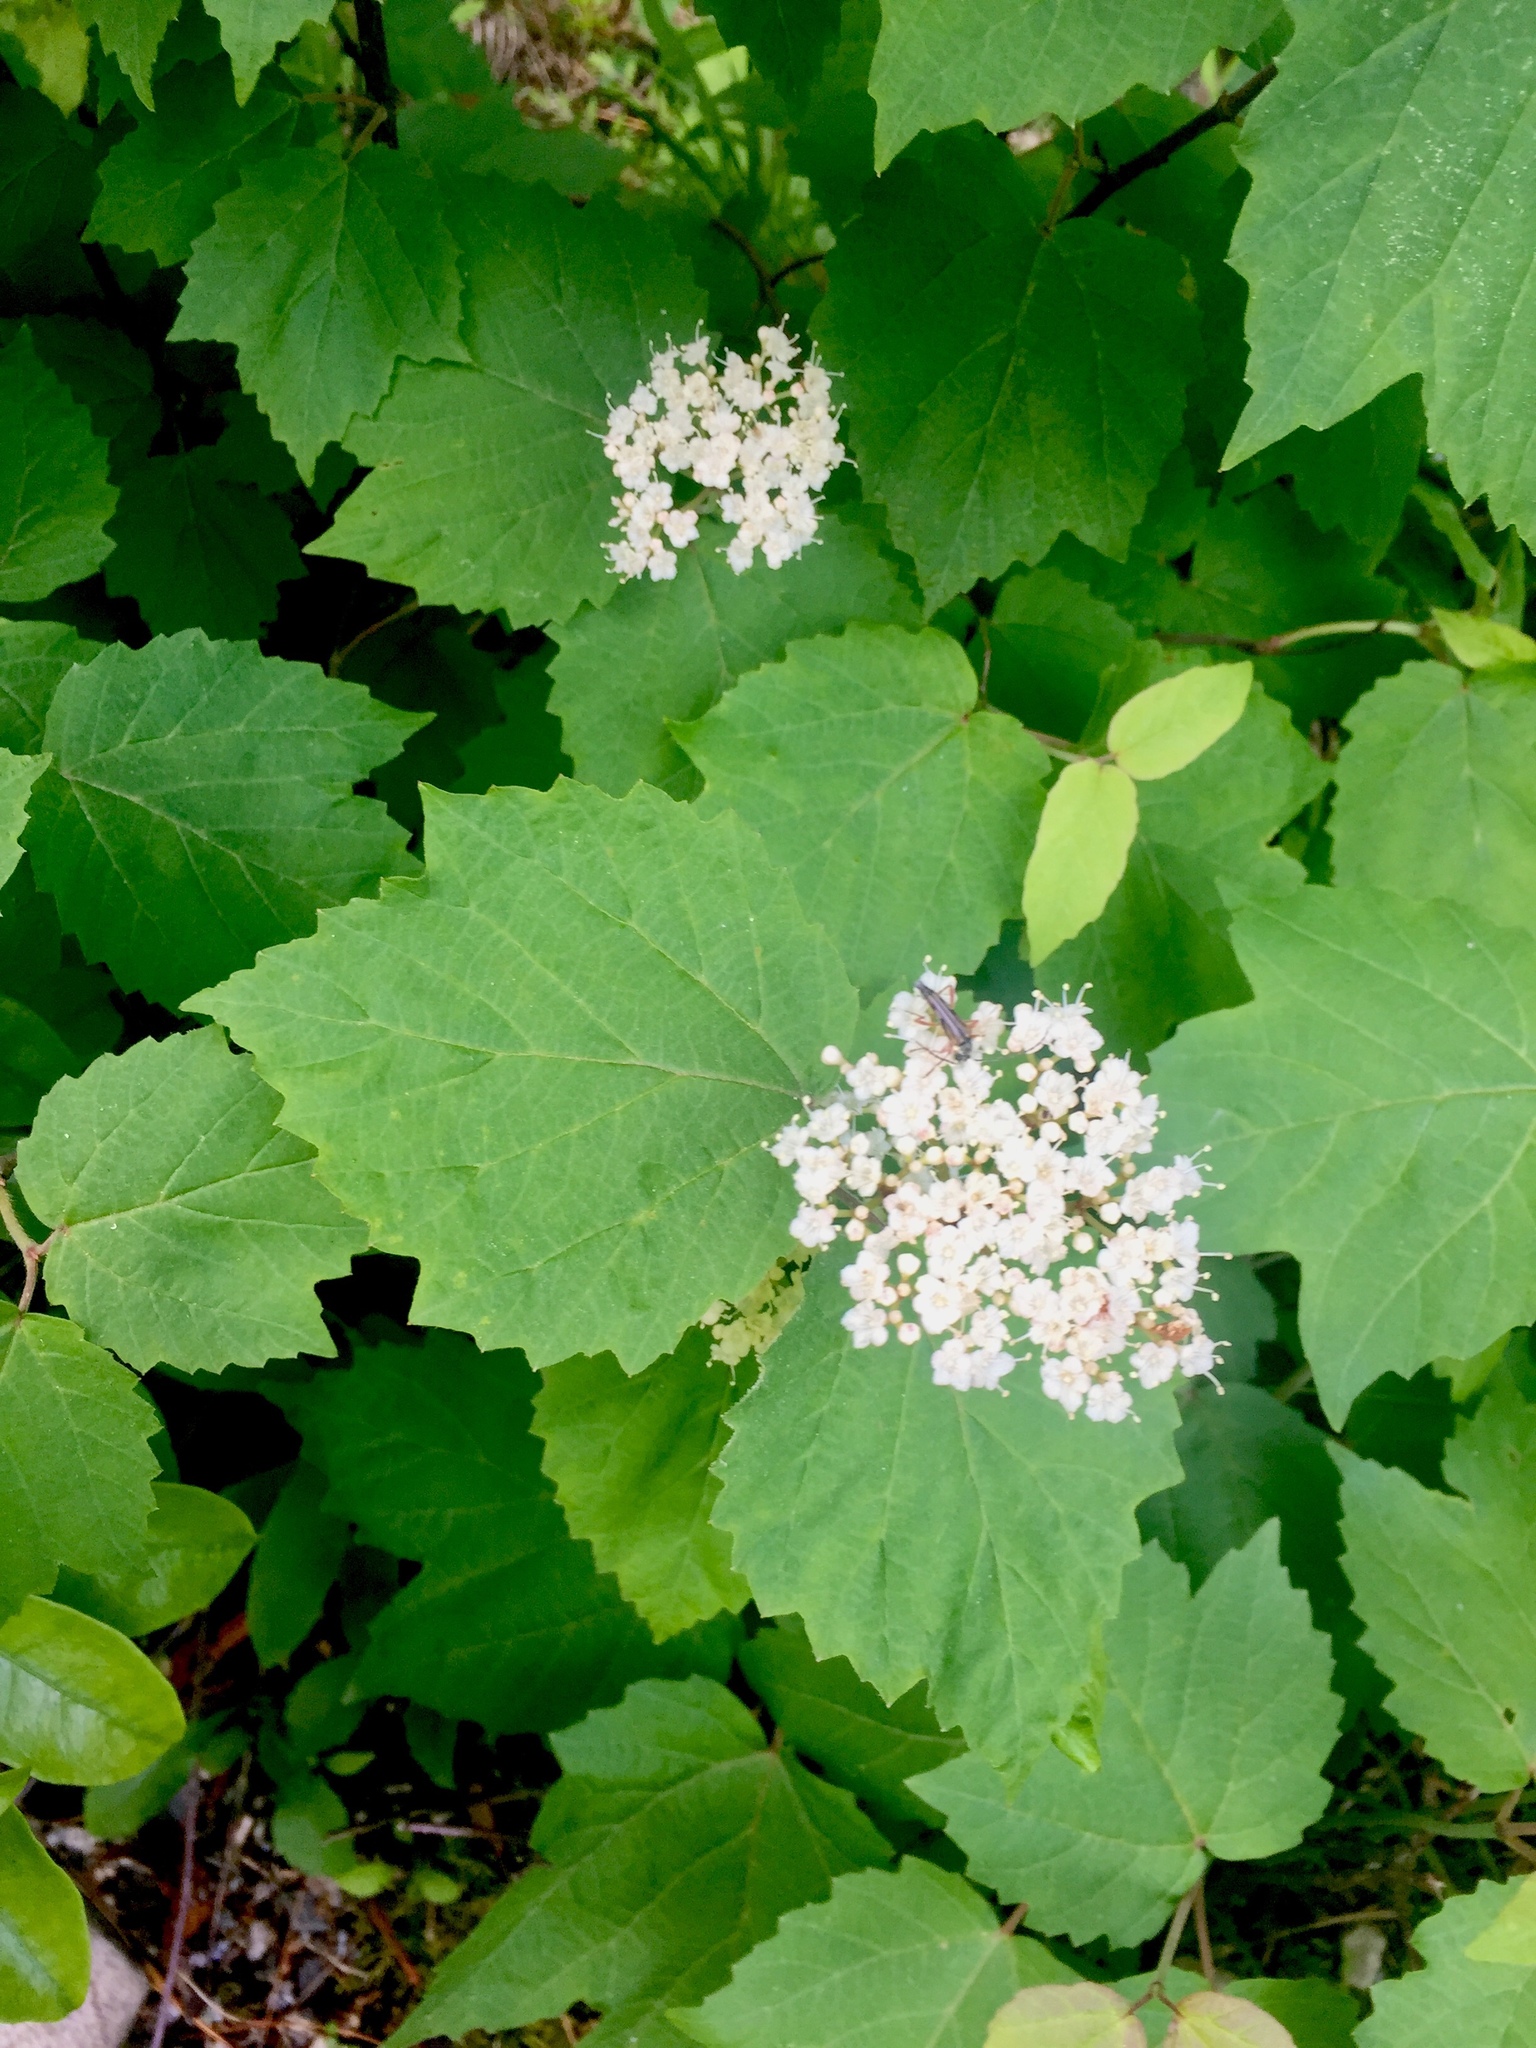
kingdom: Plantae
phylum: Tracheophyta
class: Magnoliopsida
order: Dipsacales
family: Viburnaceae
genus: Viburnum
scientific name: Viburnum acerifolium
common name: Dockmackie
